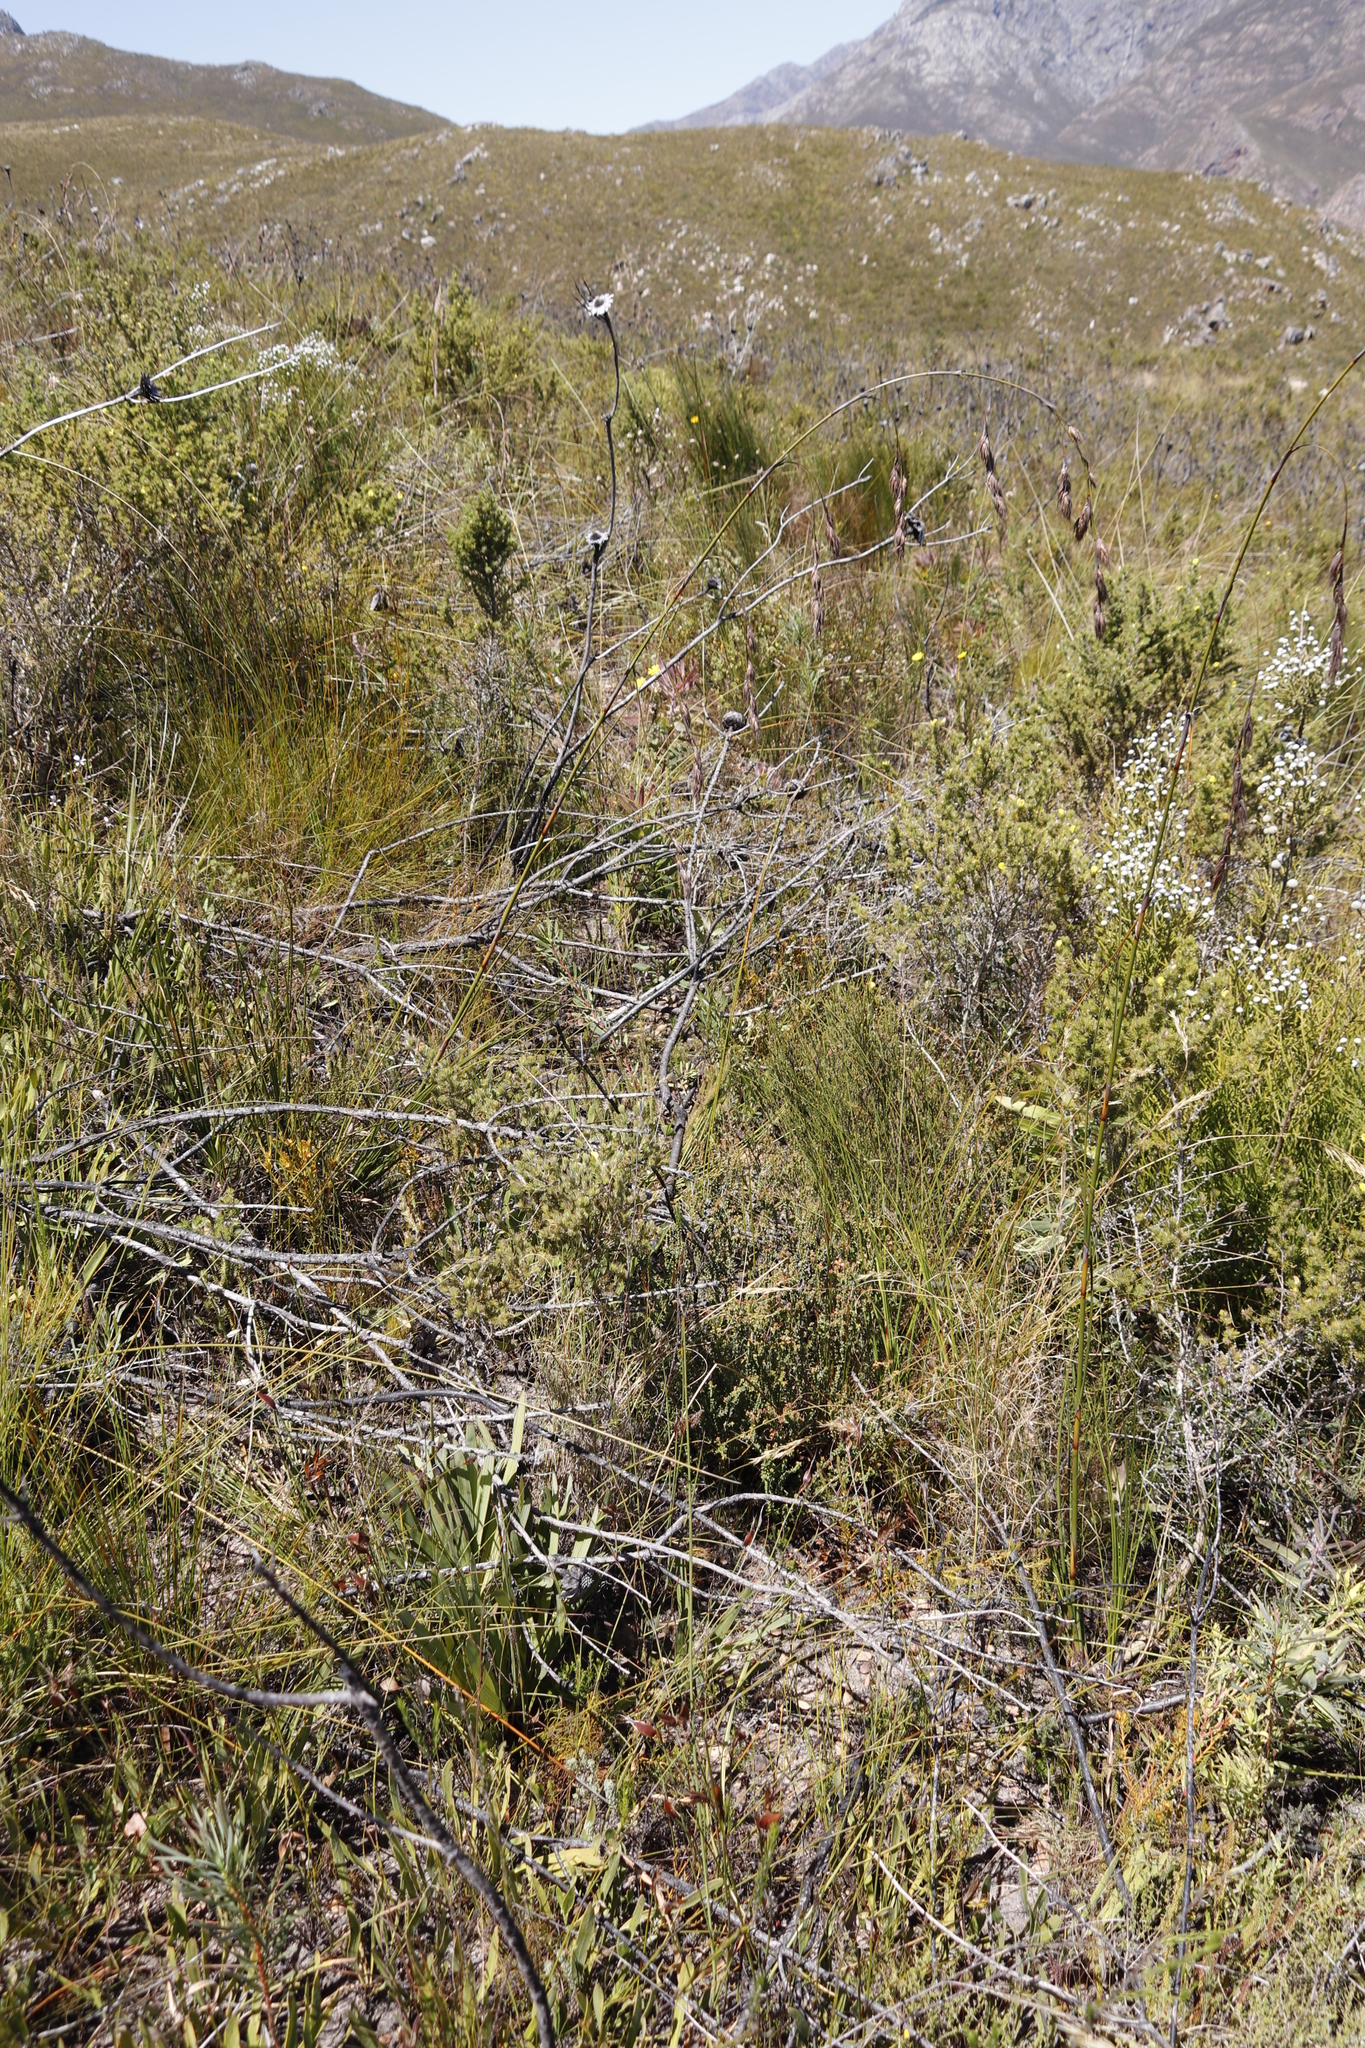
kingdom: Plantae
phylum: Tracheophyta
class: Magnoliopsida
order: Proteales
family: Proteaceae
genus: Protea
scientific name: Protea neriifolia
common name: Blue sugarbush
